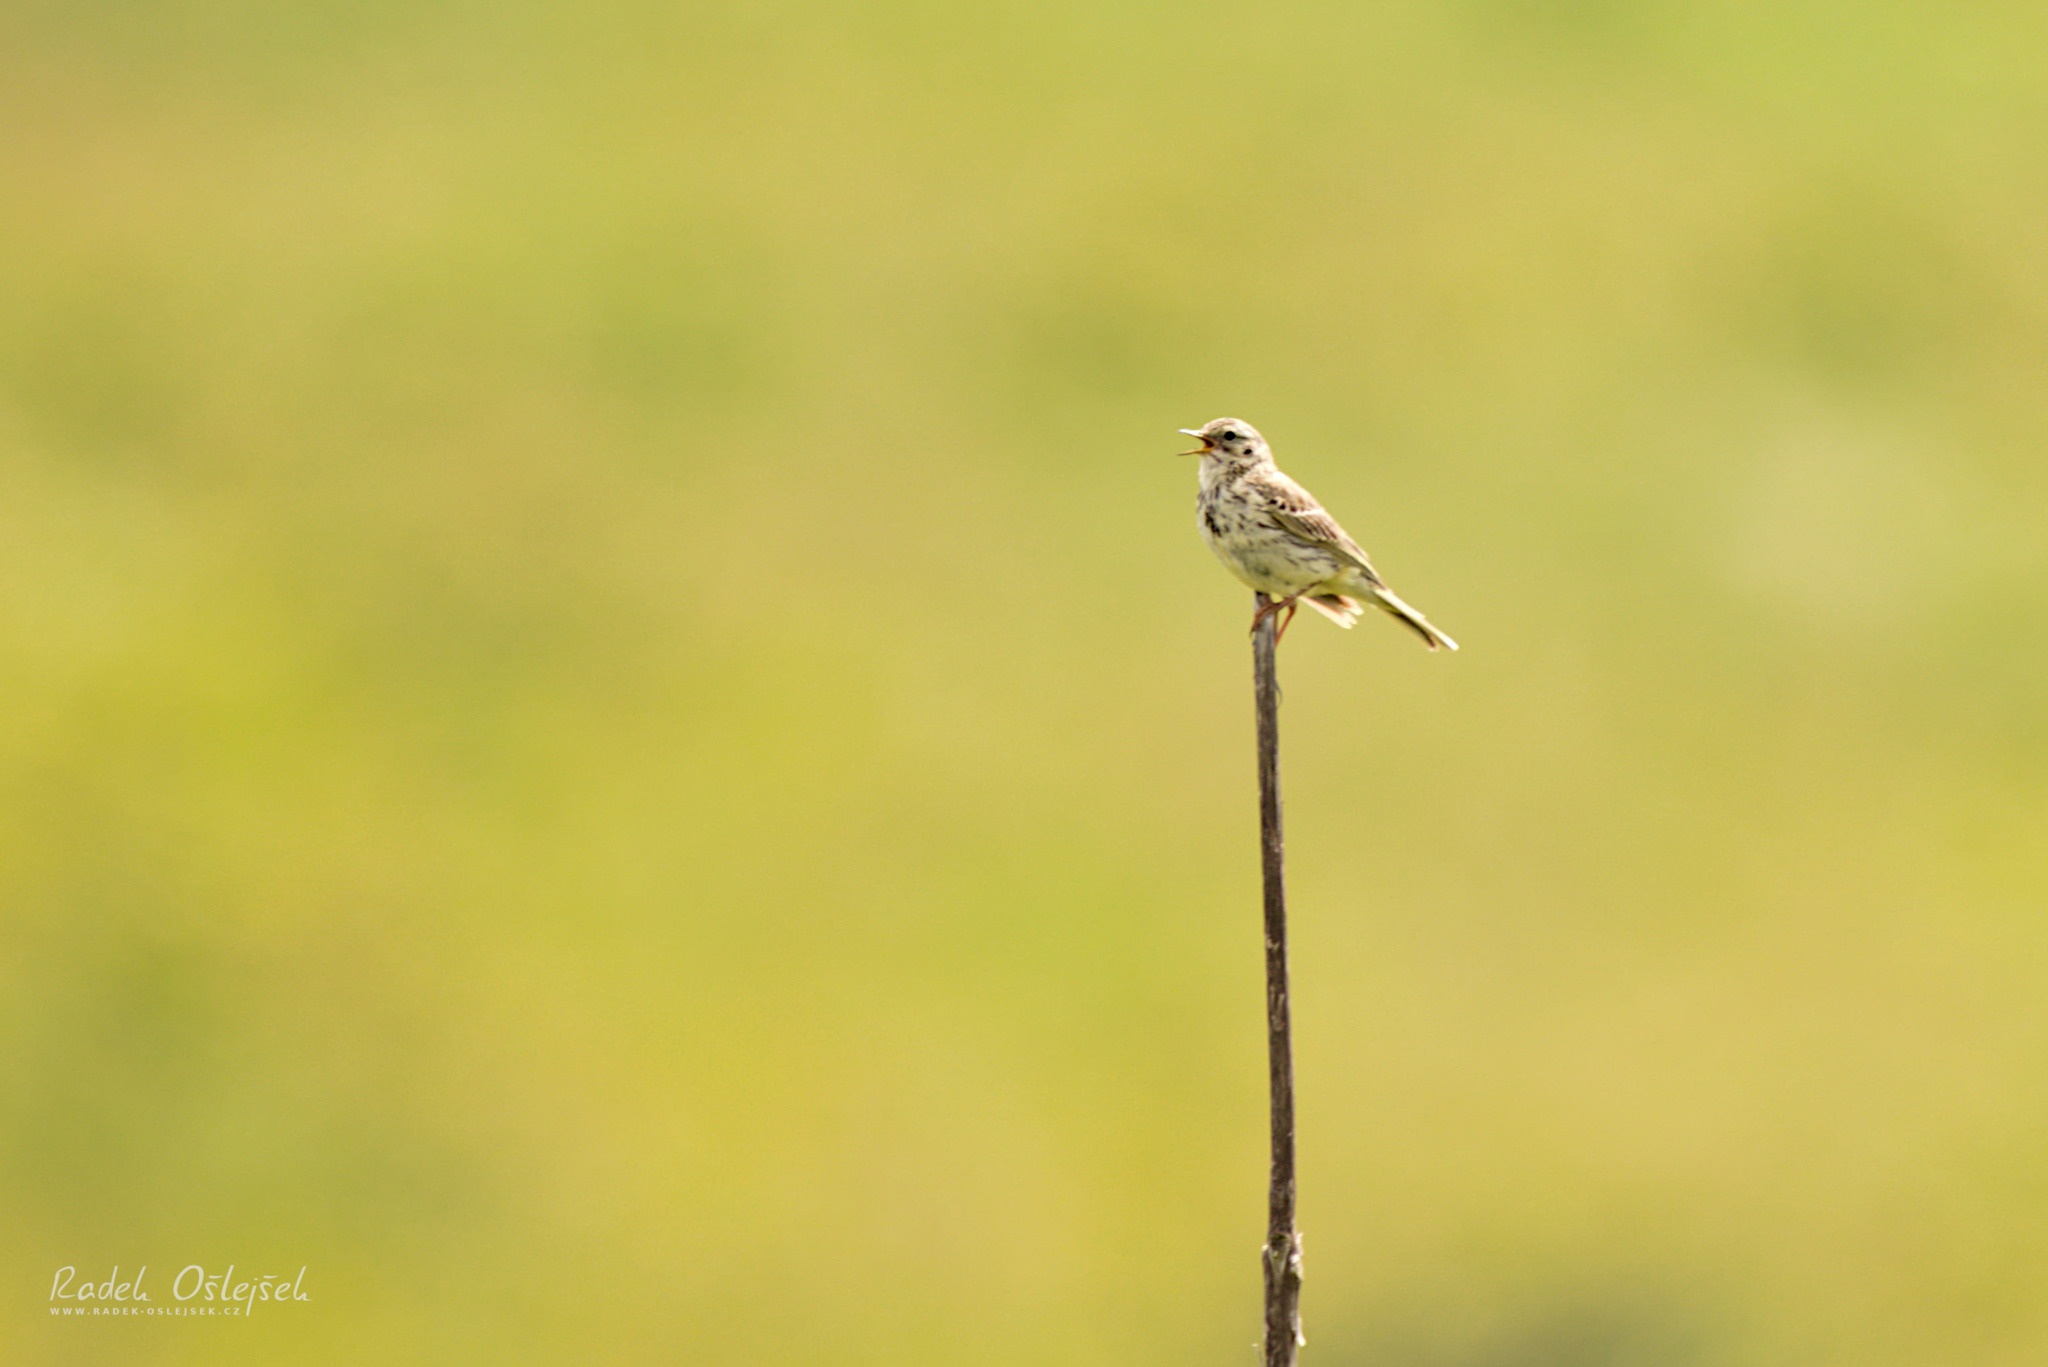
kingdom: Animalia
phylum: Chordata
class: Aves
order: Passeriformes
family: Motacillidae
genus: Anthus
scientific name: Anthus pratensis
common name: Meadow pipit
